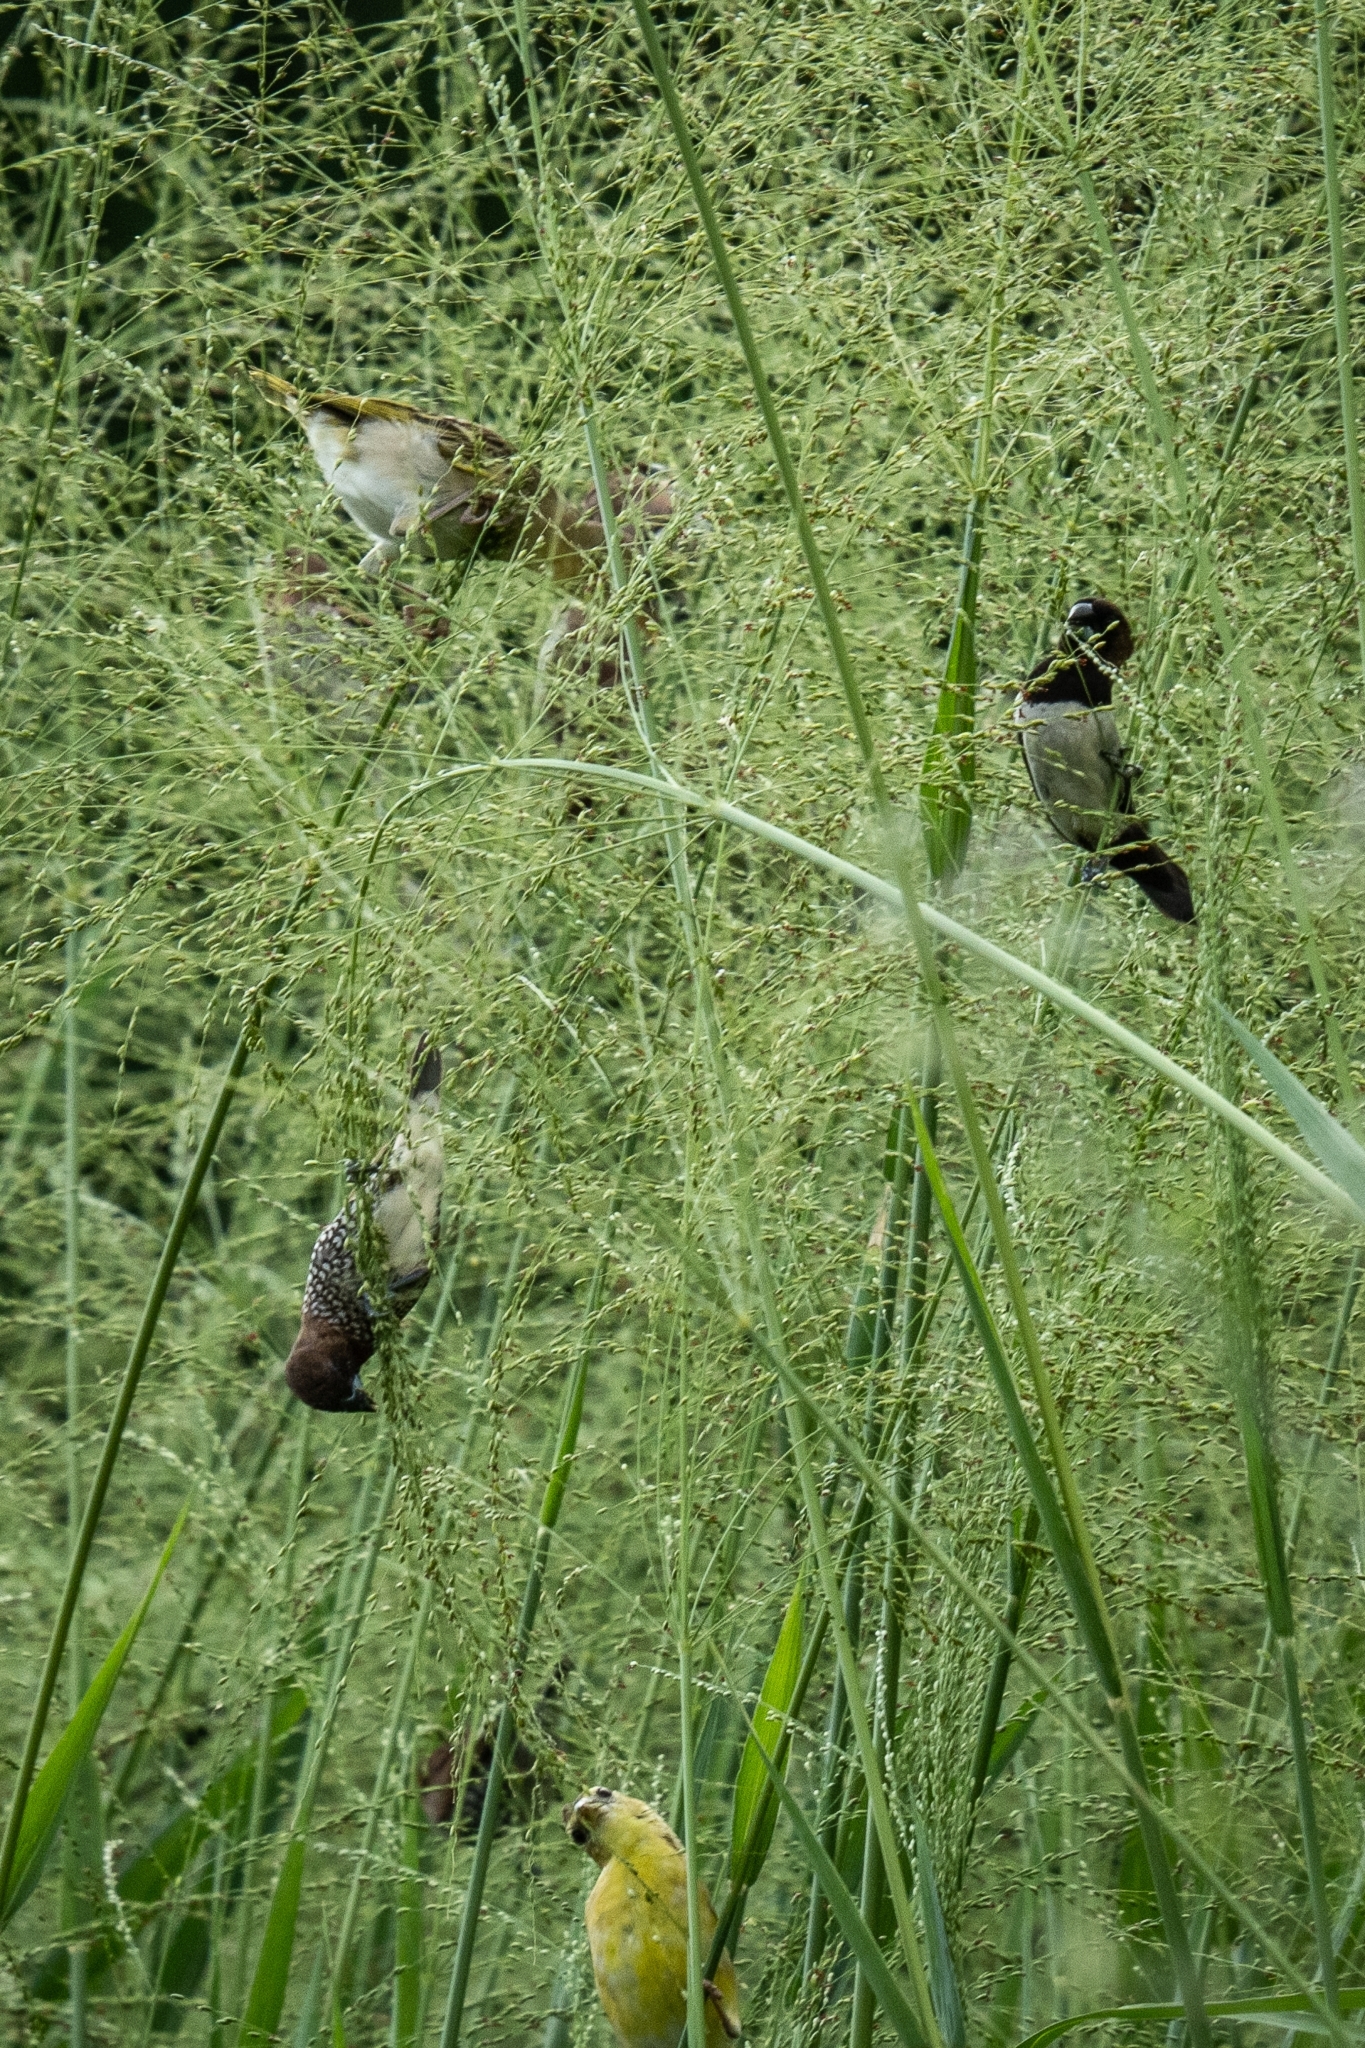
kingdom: Animalia
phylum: Chordata
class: Aves
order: Passeriformes
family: Estrildidae
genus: Lonchura
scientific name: Lonchura leucogastroides
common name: Javan munia
